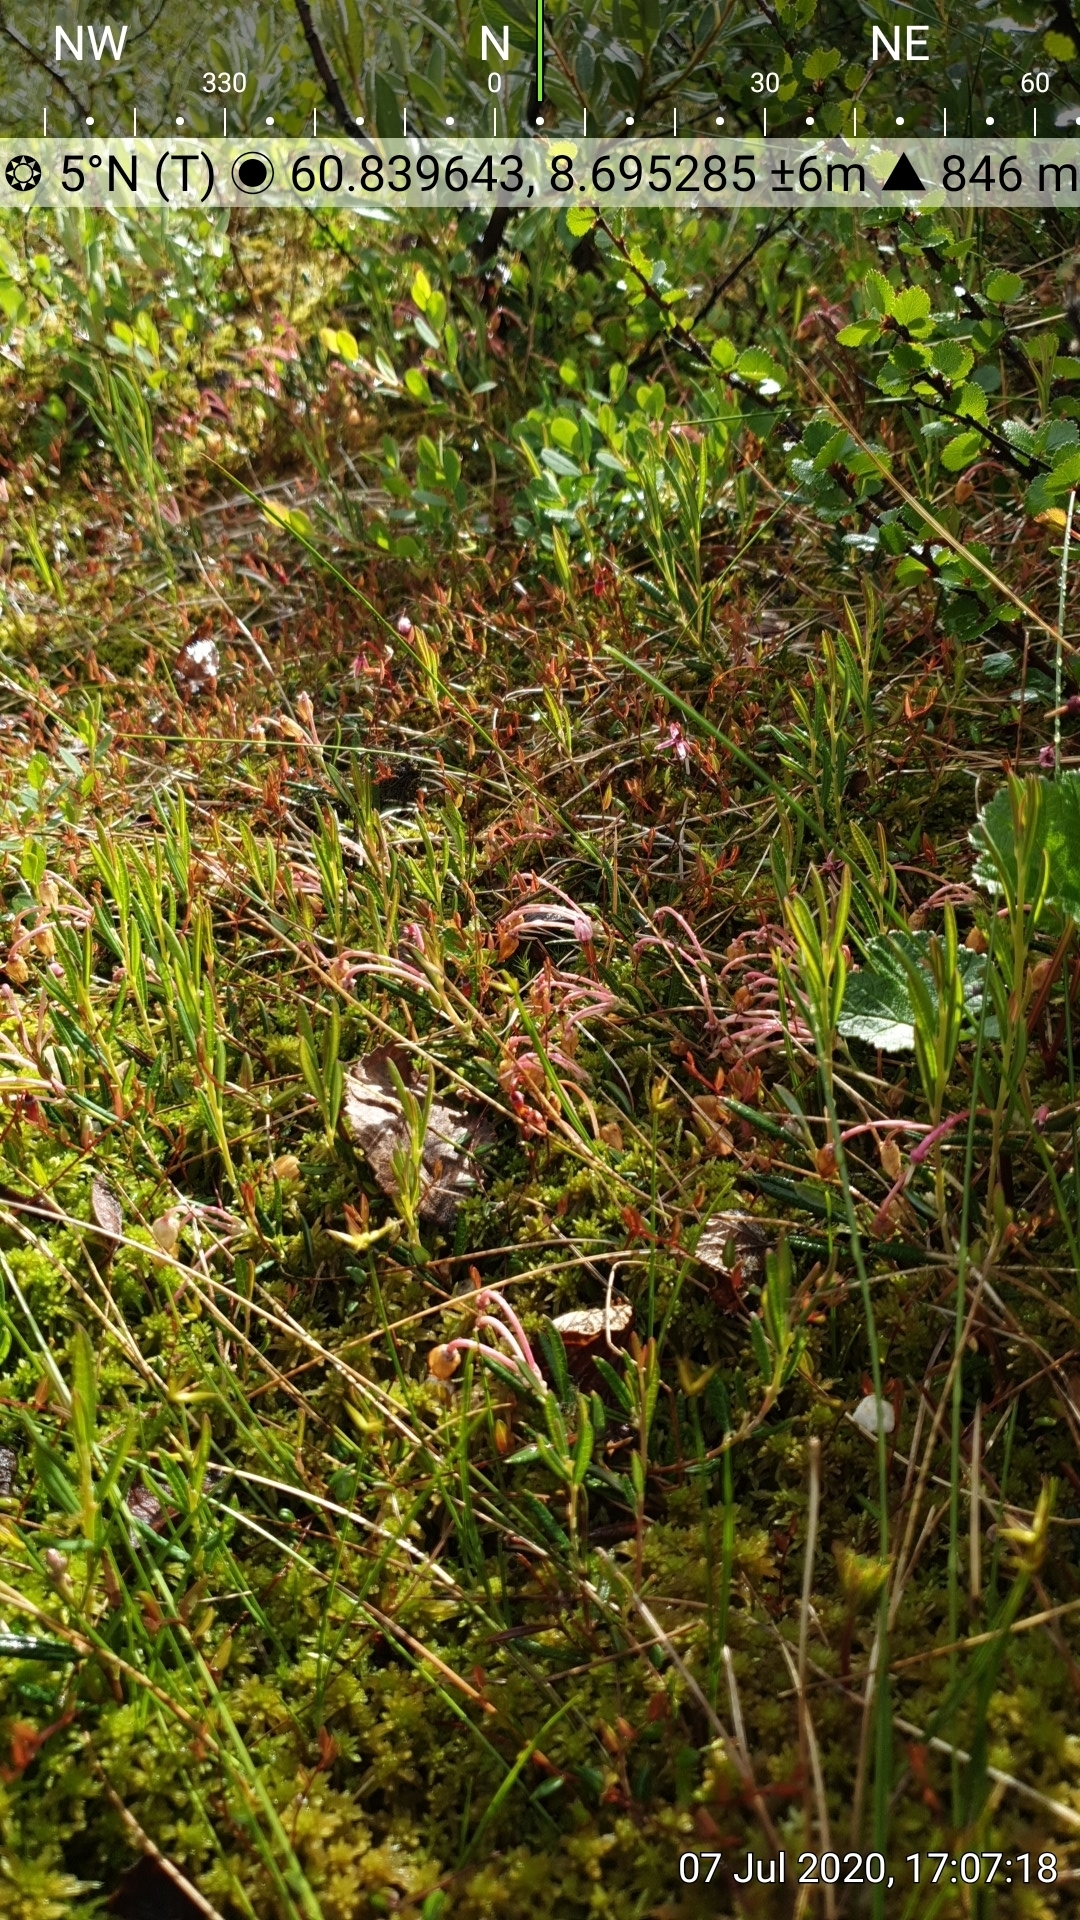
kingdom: Plantae
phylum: Tracheophyta
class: Magnoliopsida
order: Rosales
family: Rosaceae
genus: Rubus
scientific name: Rubus chamaemorus
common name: Cloudberry
